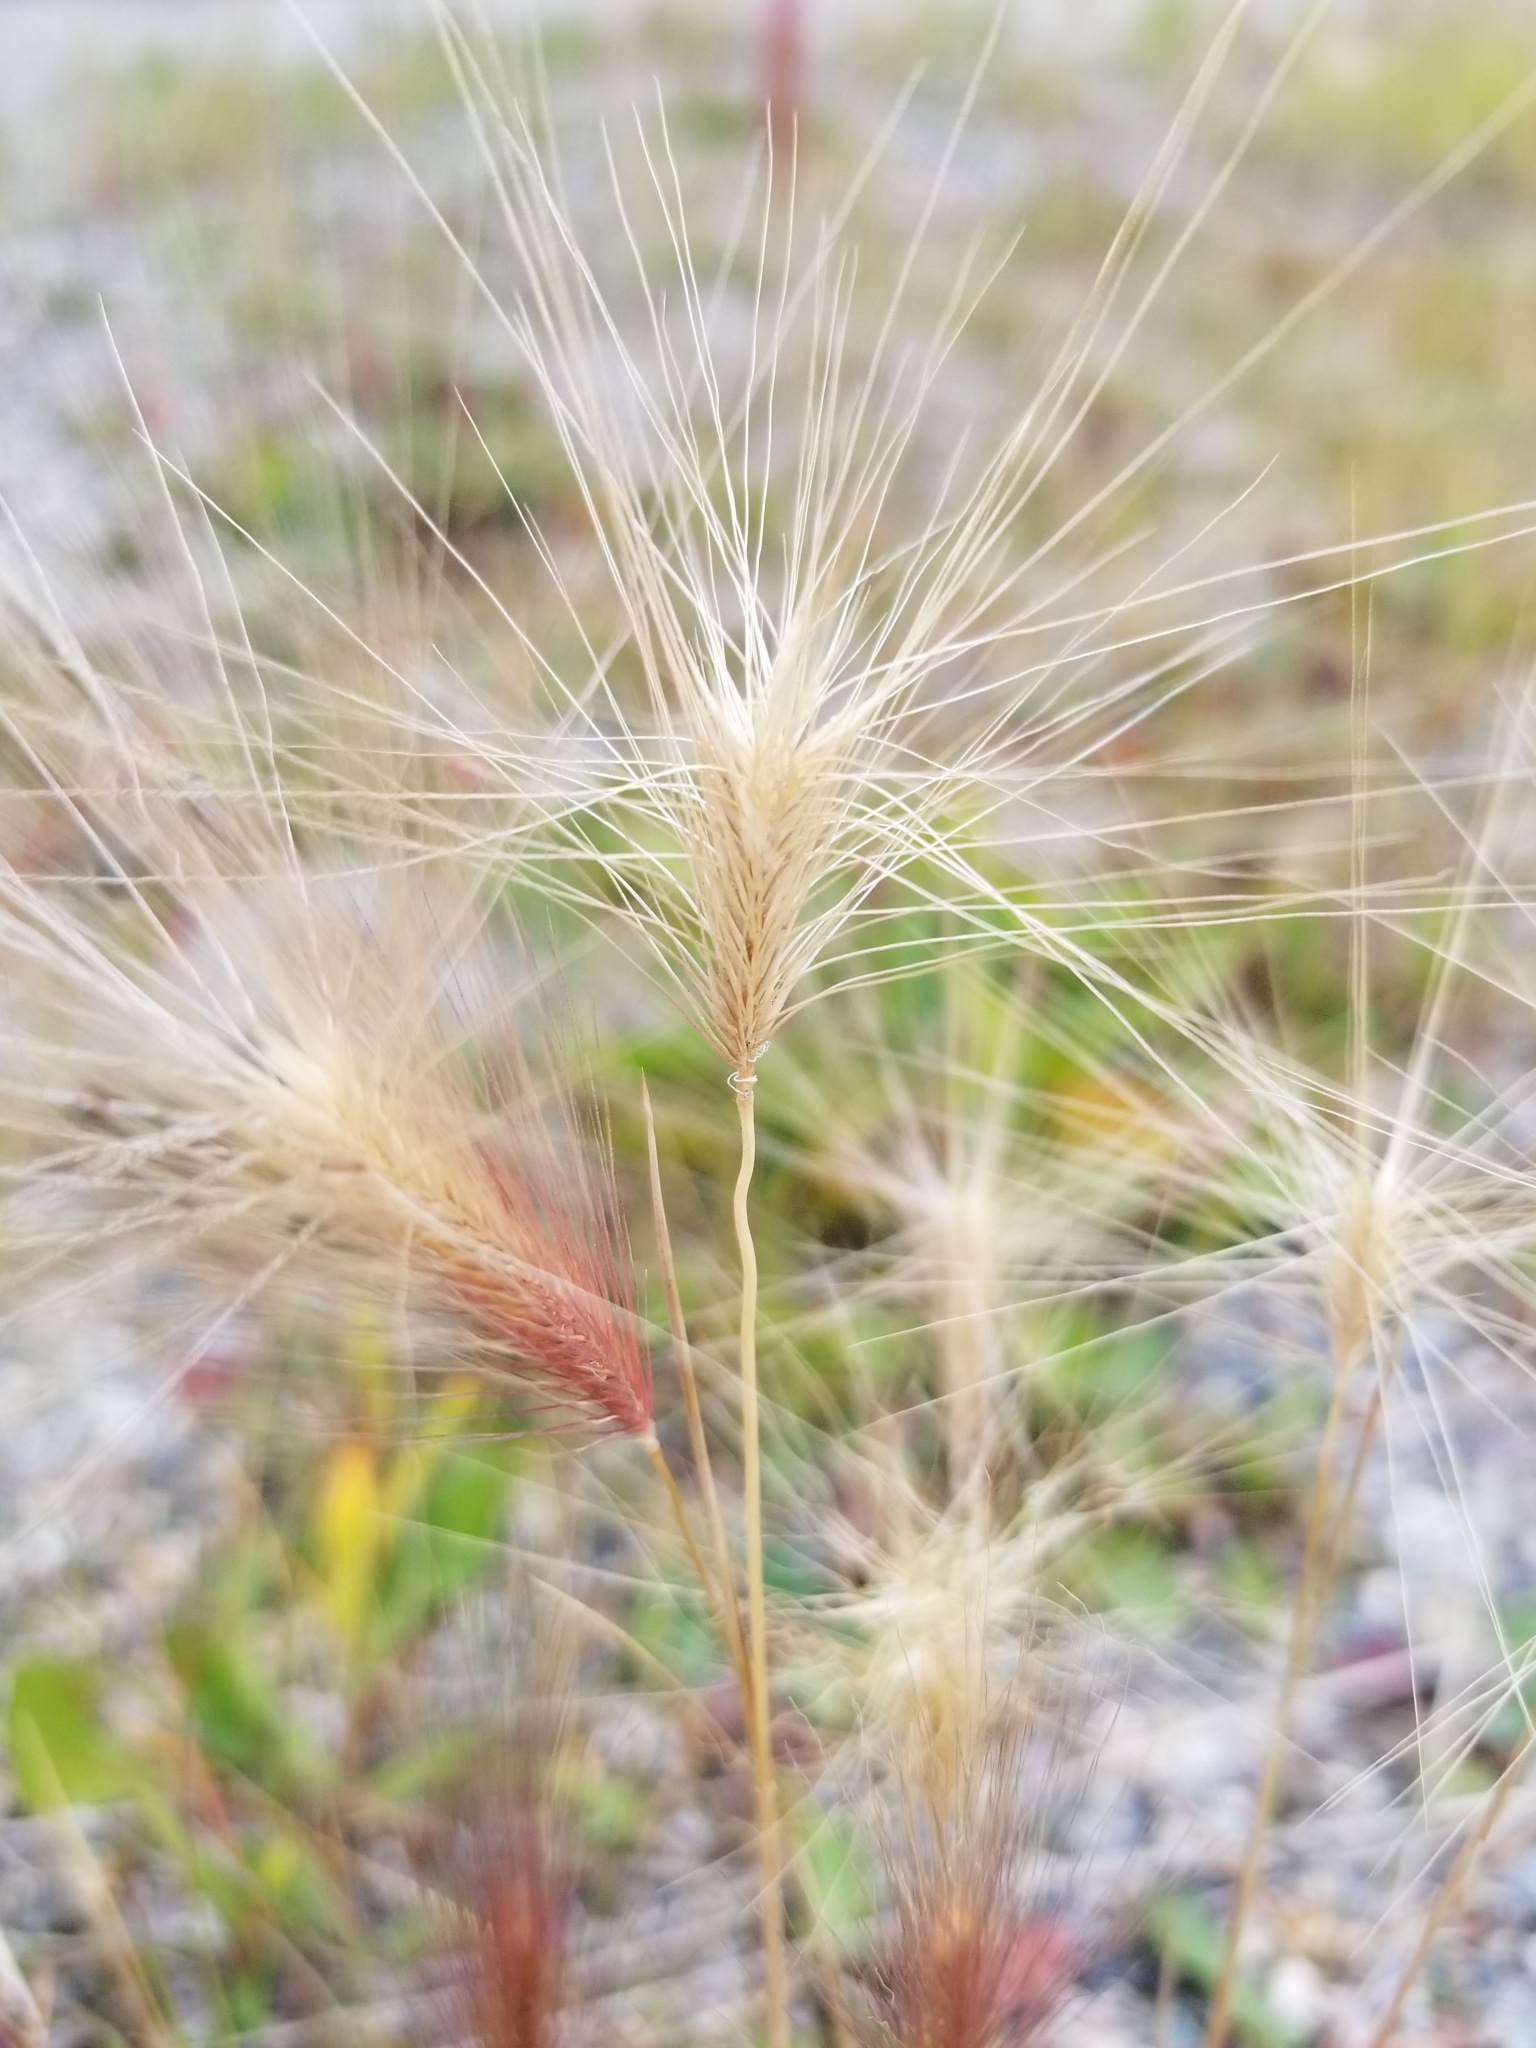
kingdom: Plantae
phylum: Tracheophyta
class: Liliopsida
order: Poales
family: Poaceae
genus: Hordeum
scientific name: Hordeum jubatum
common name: Foxtail barley
